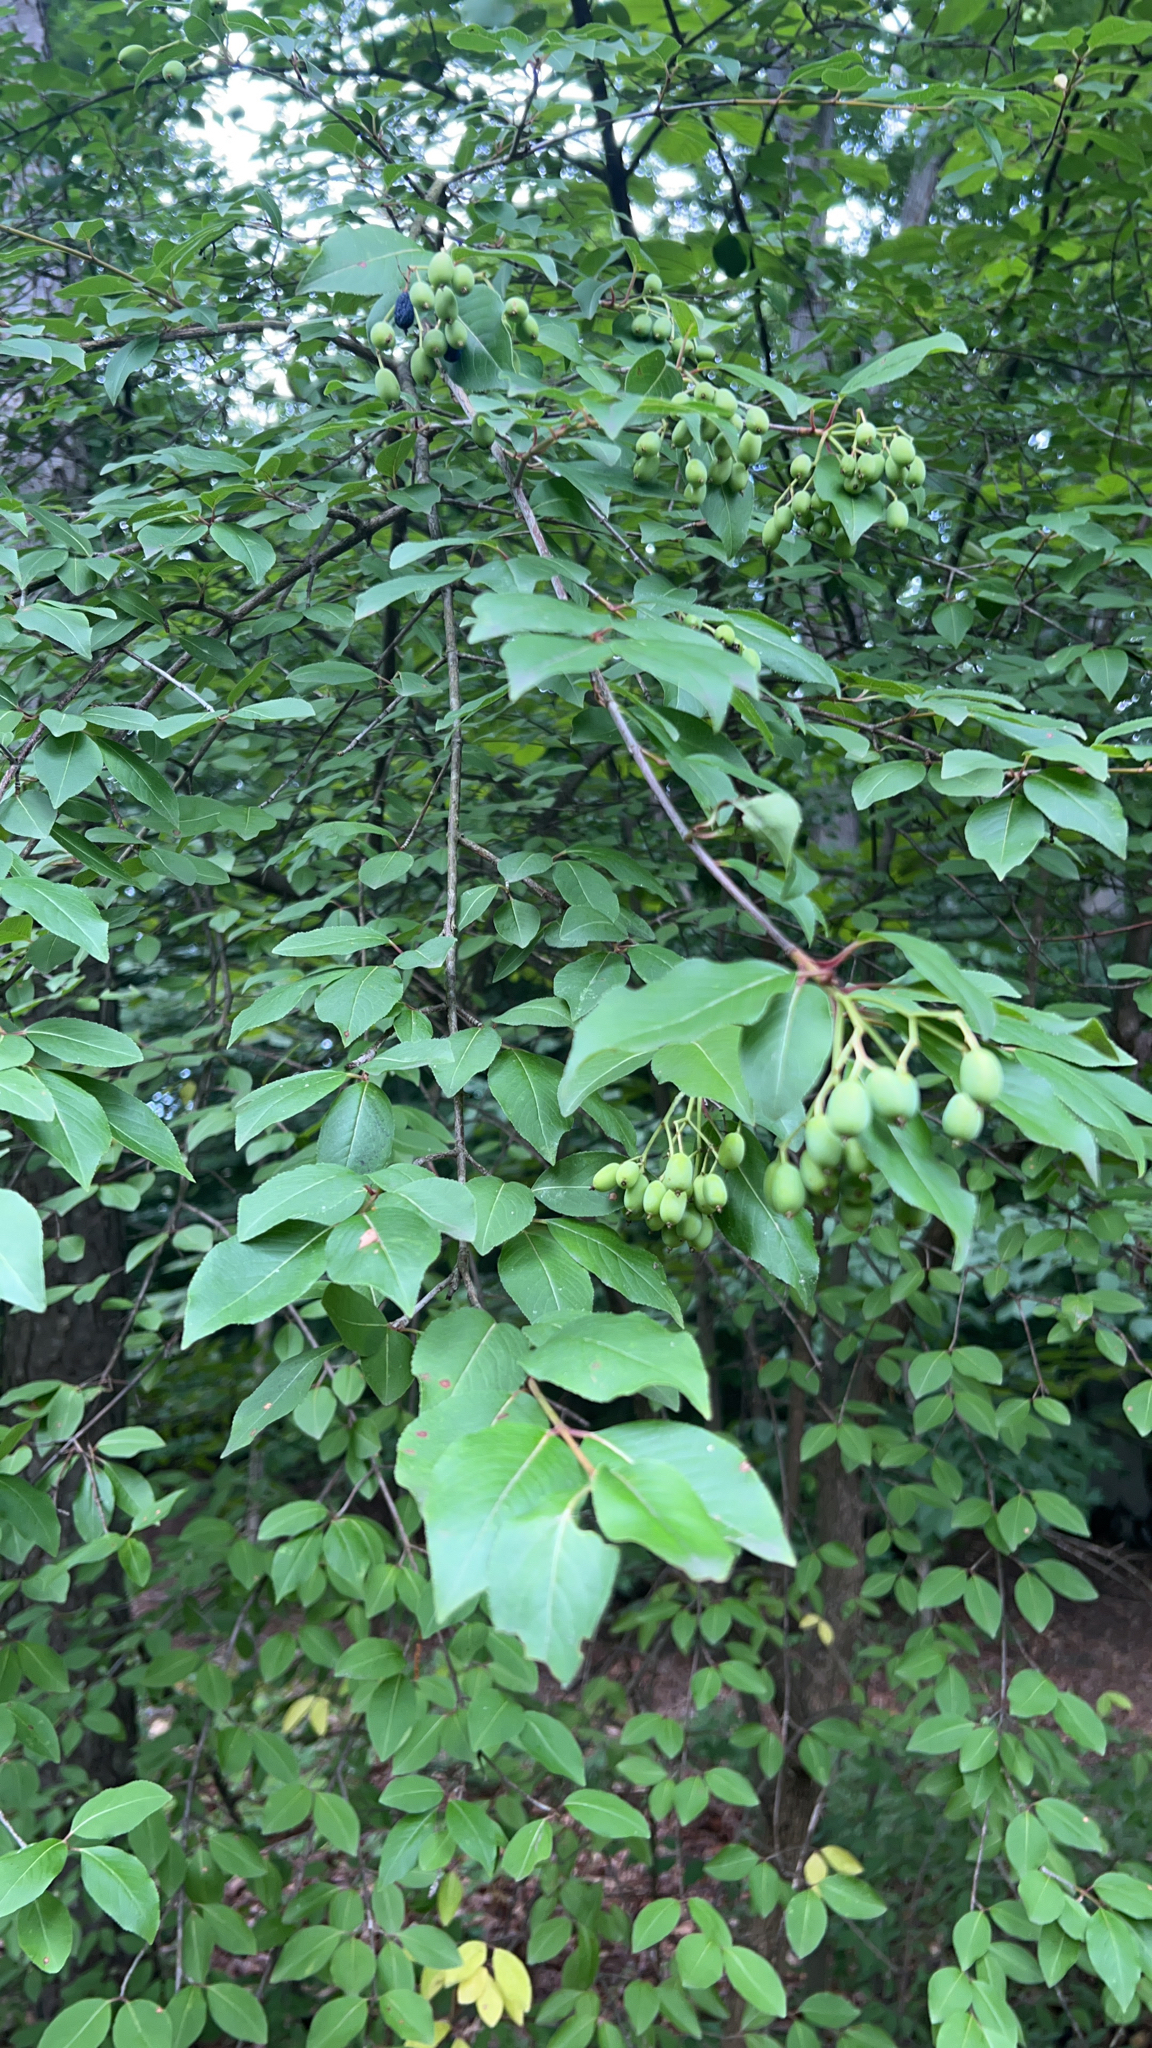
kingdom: Plantae
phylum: Tracheophyta
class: Magnoliopsida
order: Dipsacales
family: Viburnaceae
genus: Viburnum
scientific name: Viburnum prunifolium
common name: Black haw
